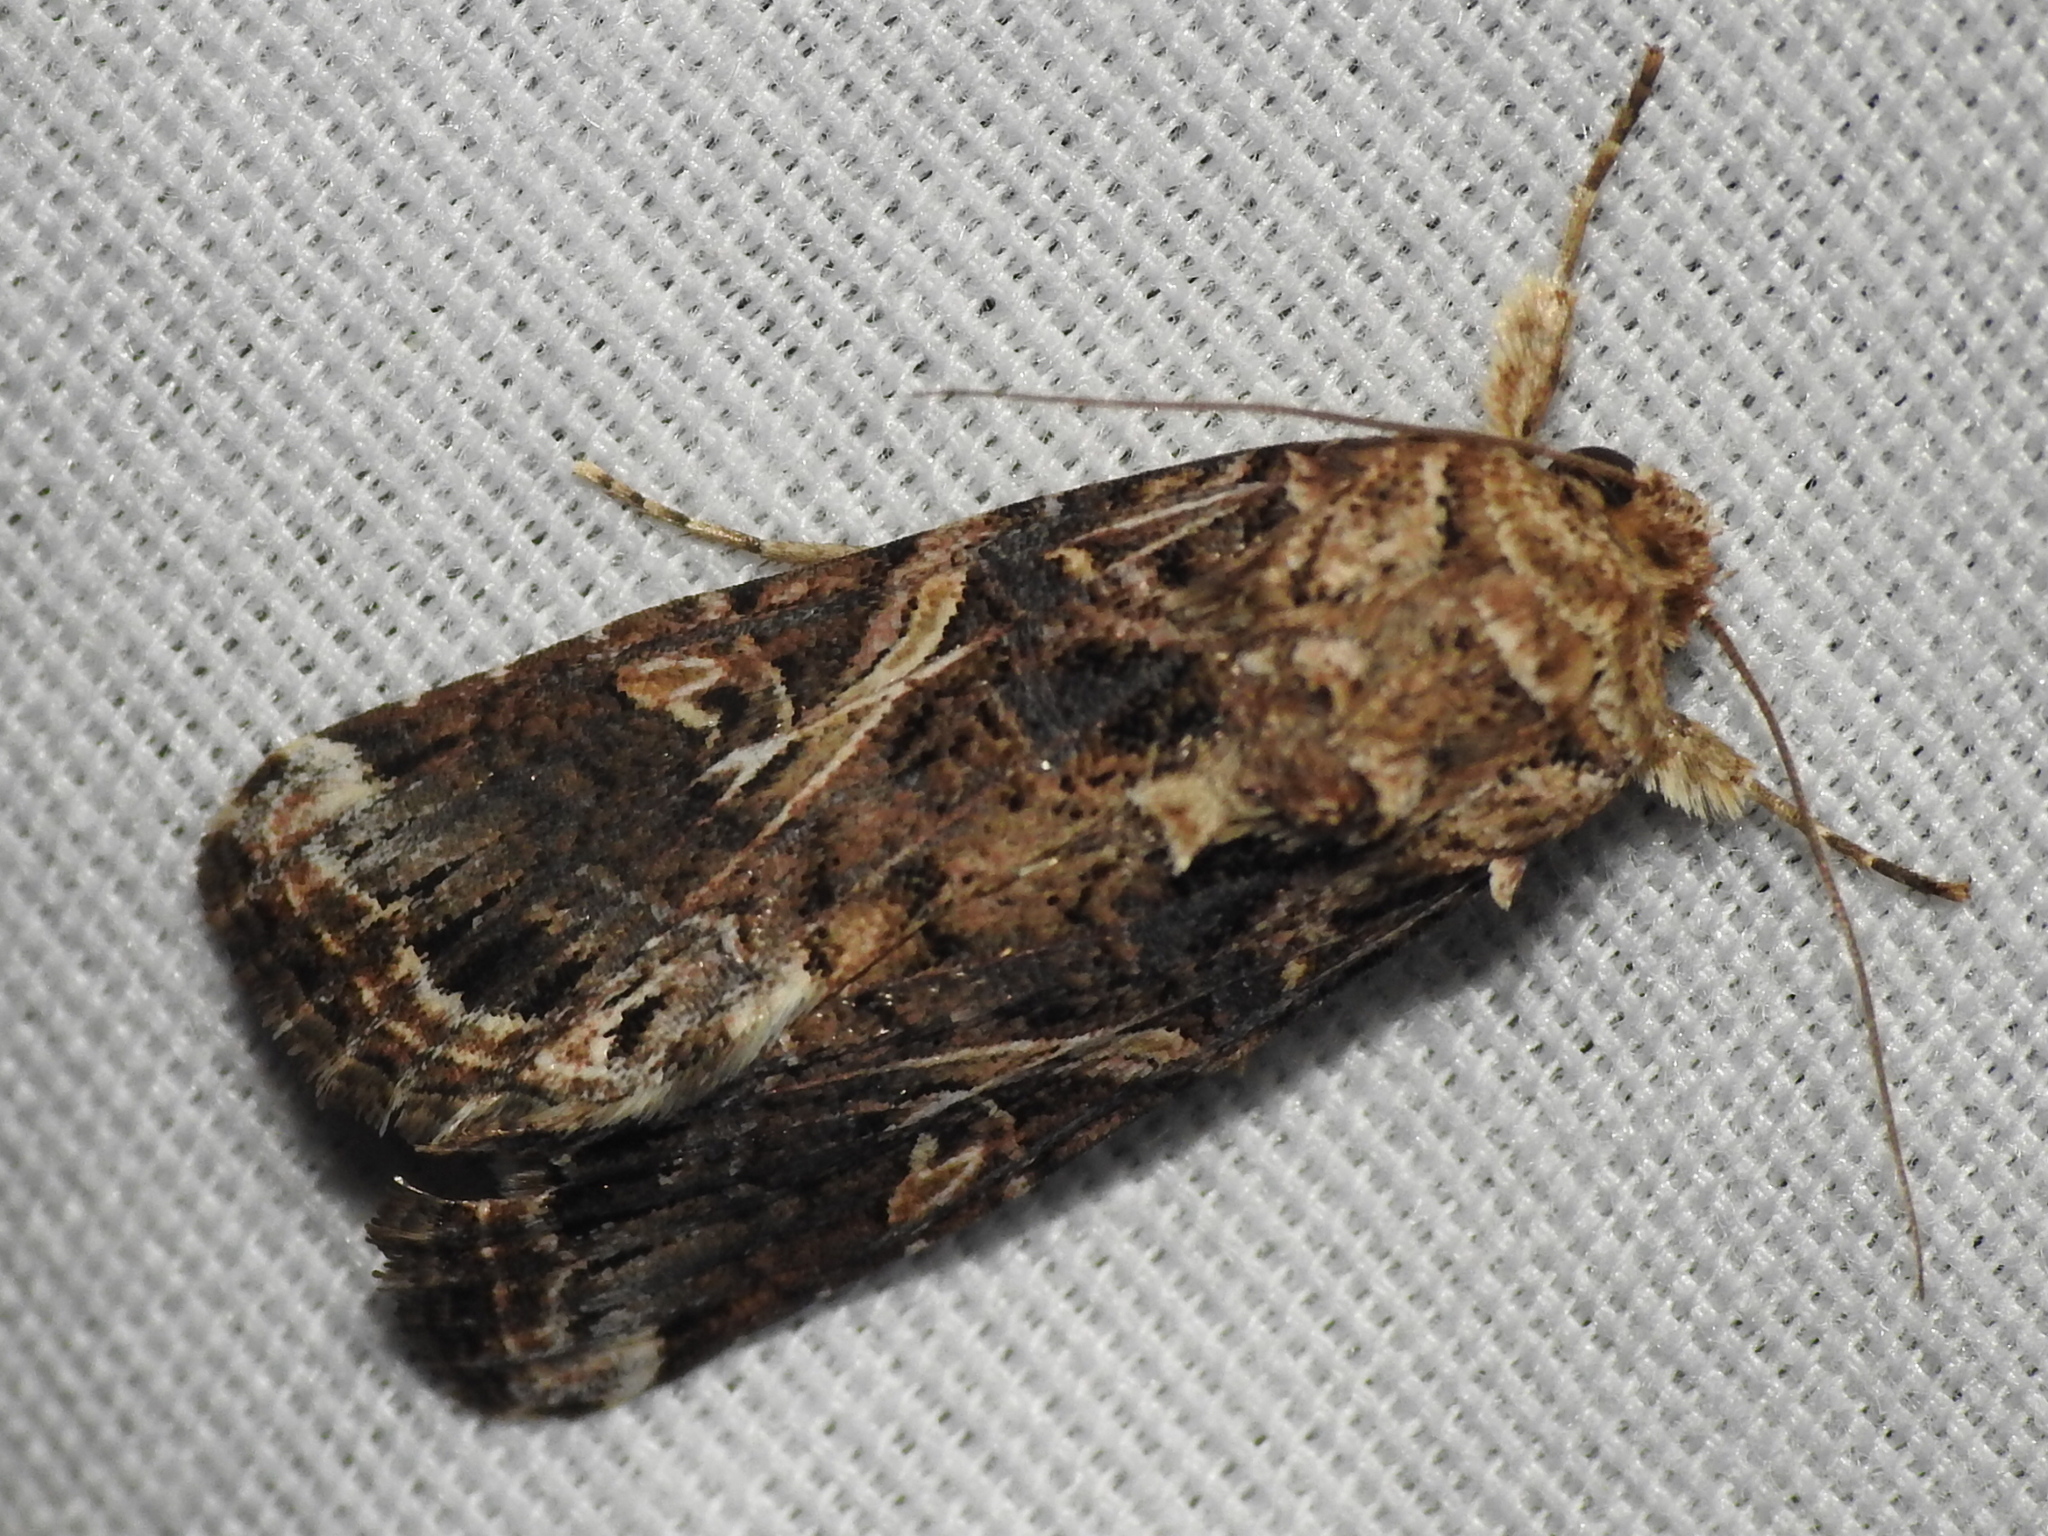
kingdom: Animalia
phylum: Arthropoda
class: Insecta
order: Lepidoptera
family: Noctuidae
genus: Spodoptera
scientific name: Spodoptera ornithogalli
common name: Yellow-striped armyworm
